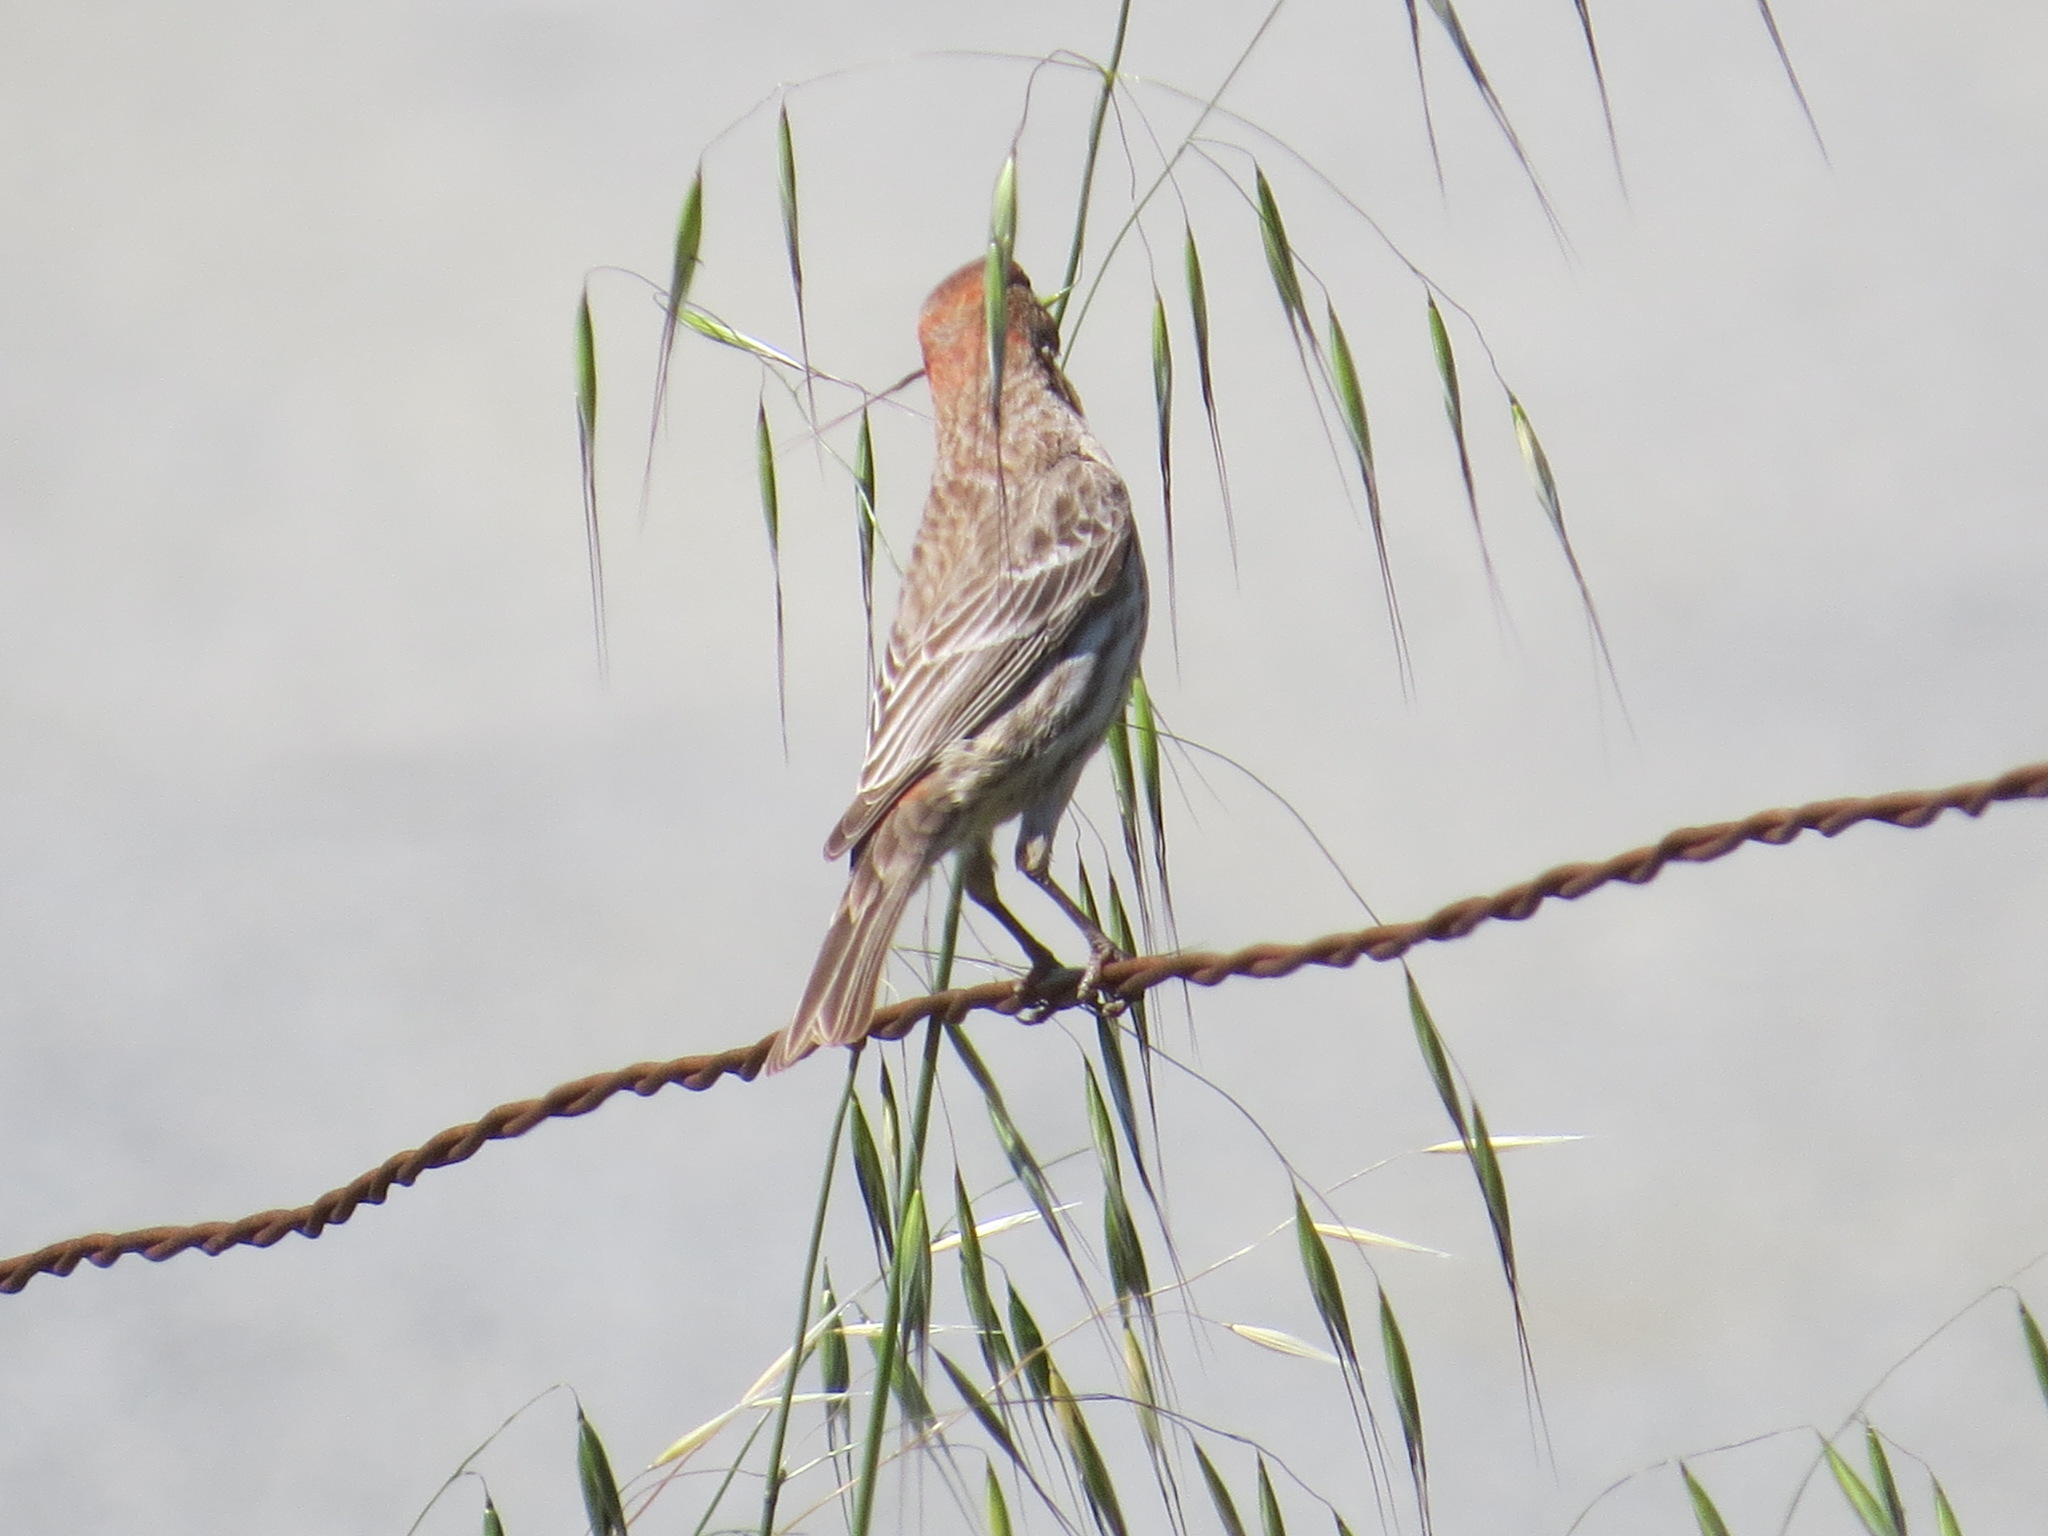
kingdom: Animalia
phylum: Chordata
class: Aves
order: Passeriformes
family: Fringillidae
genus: Haemorhous
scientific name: Haemorhous mexicanus
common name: House finch
